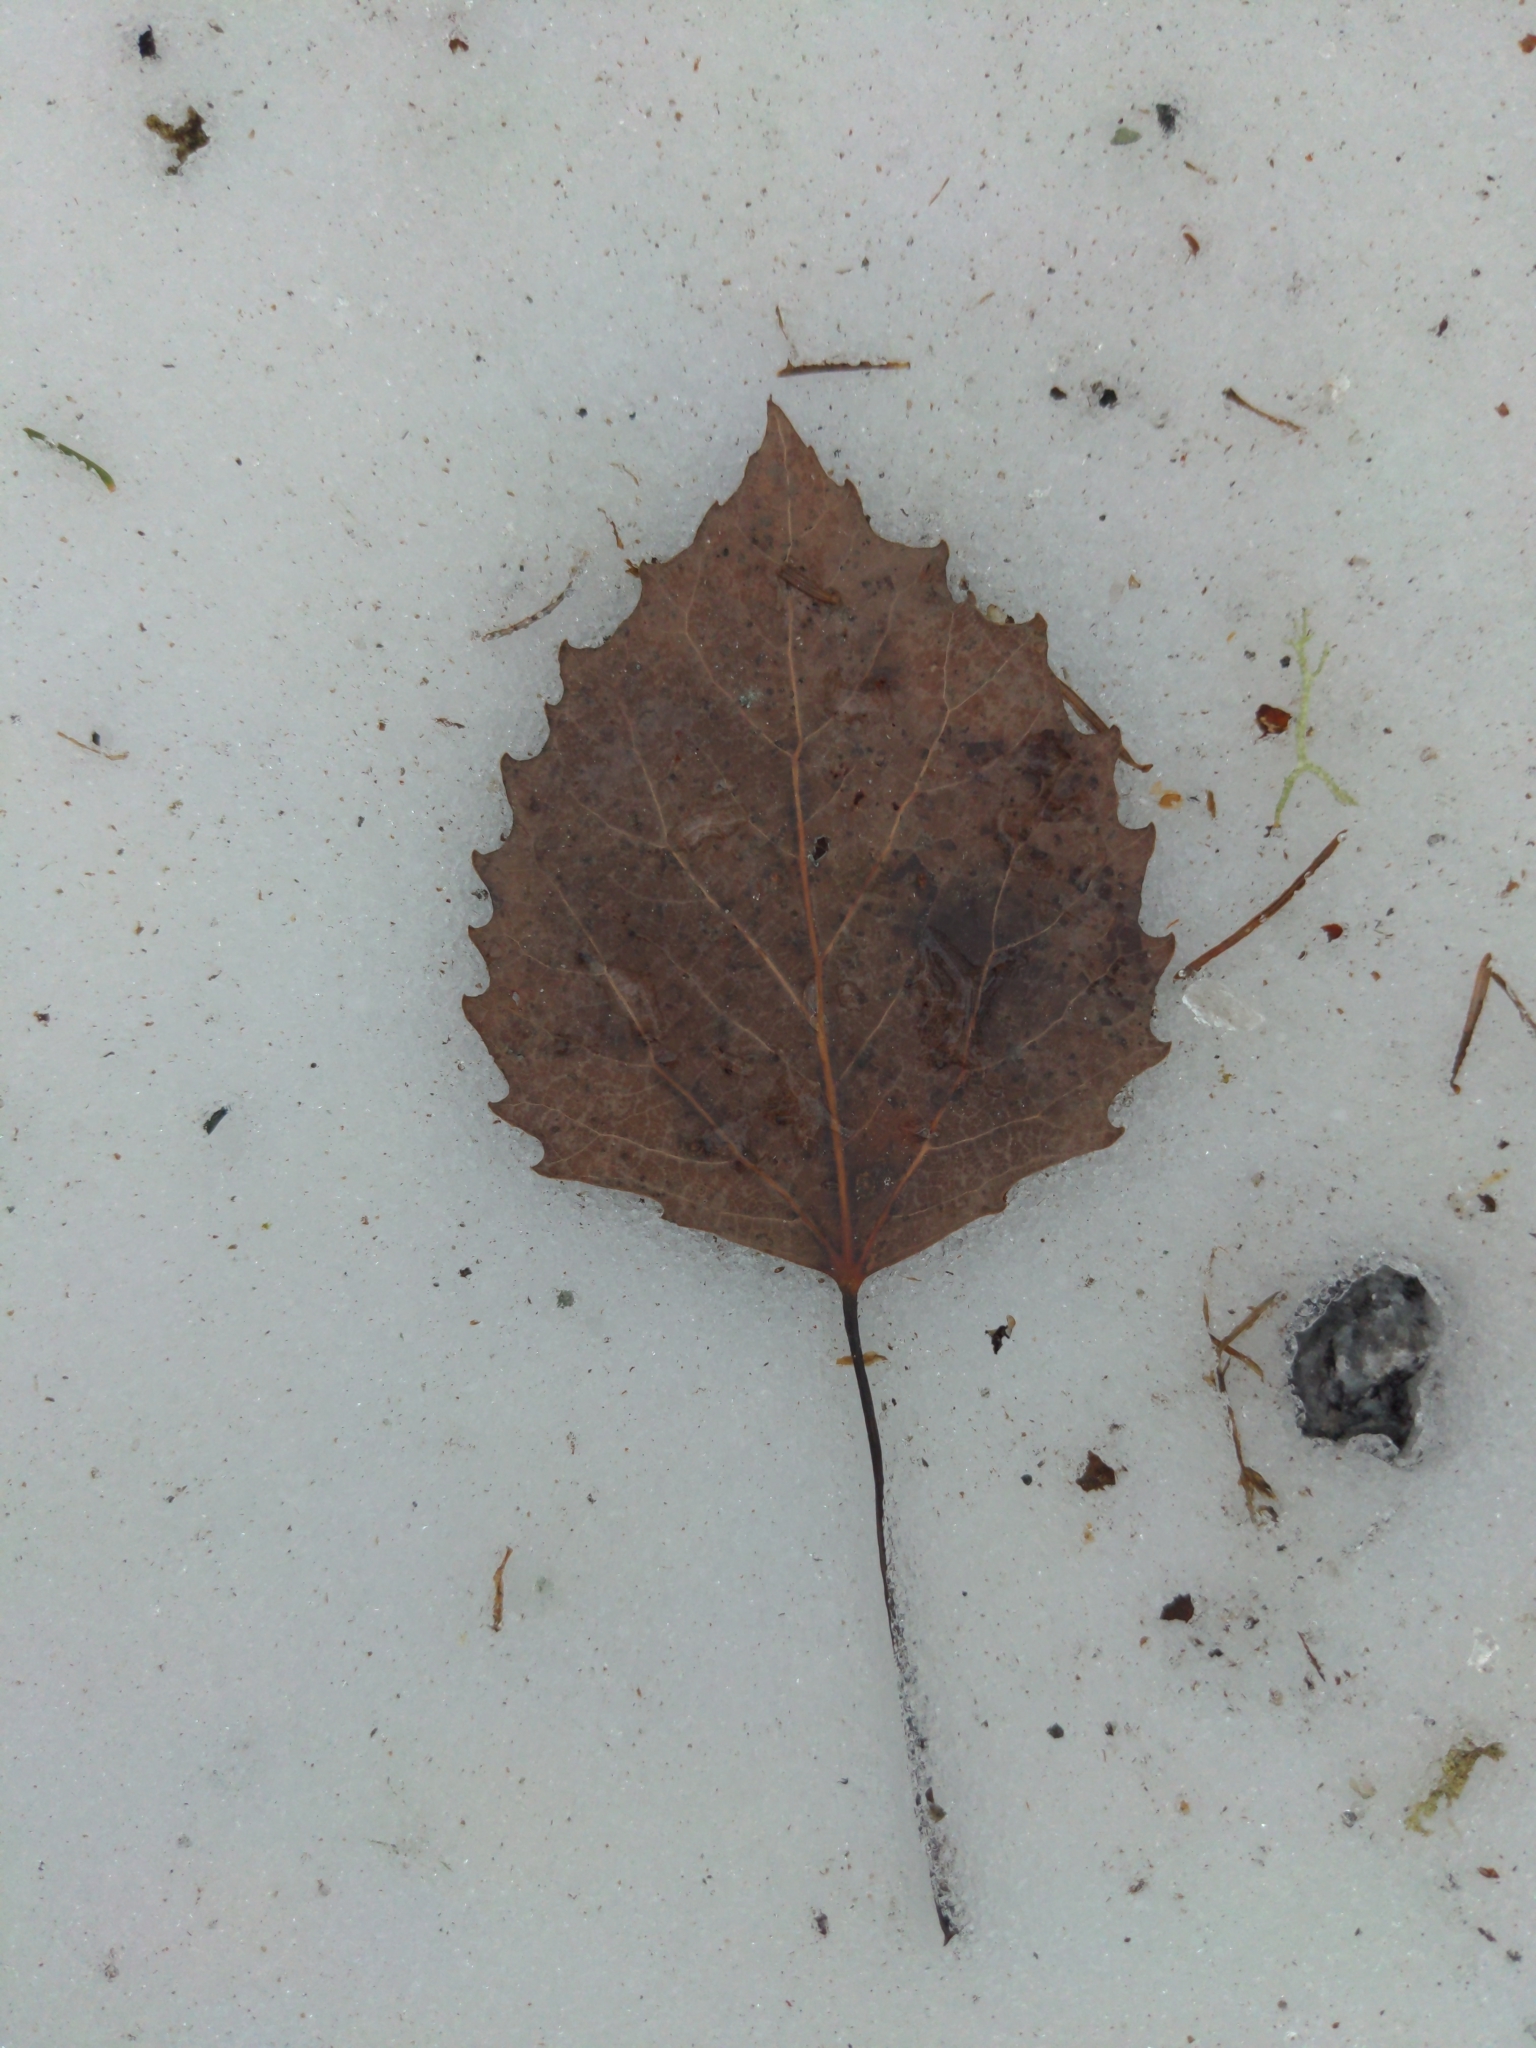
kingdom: Plantae
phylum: Tracheophyta
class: Magnoliopsida
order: Malpighiales
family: Salicaceae
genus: Populus
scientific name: Populus grandidentata
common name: Bigtooth aspen
